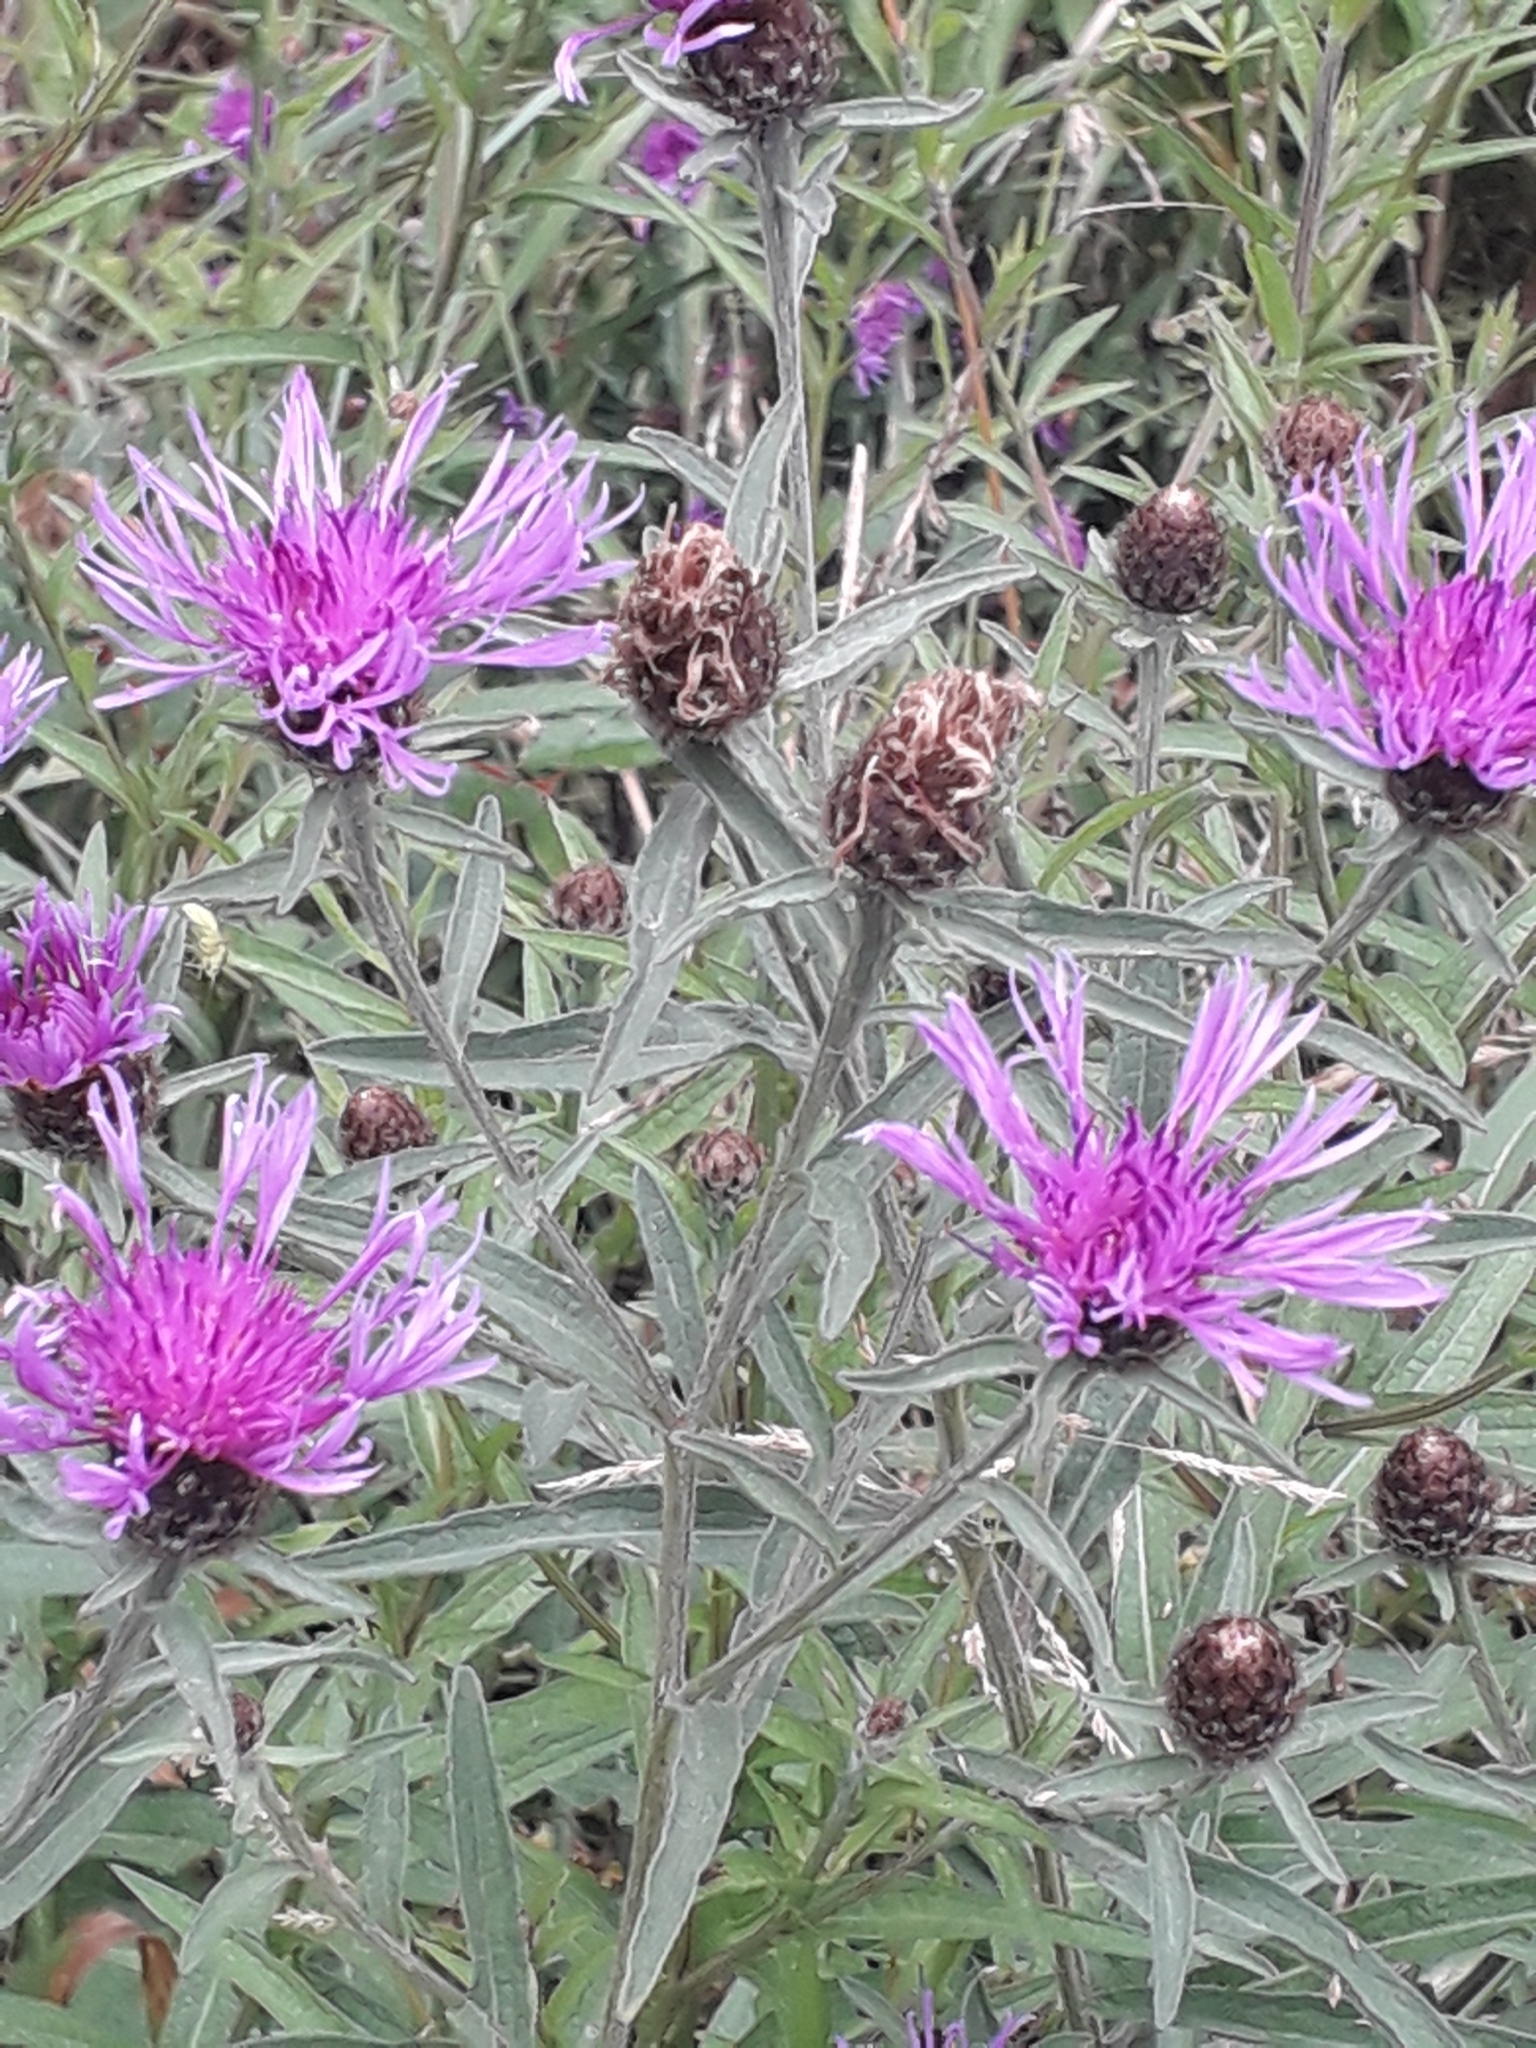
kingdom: Plantae
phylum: Tracheophyta
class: Magnoliopsida
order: Asterales
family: Asteraceae
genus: Centaurea
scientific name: Centaurea nigra
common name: Lesser knapweed
